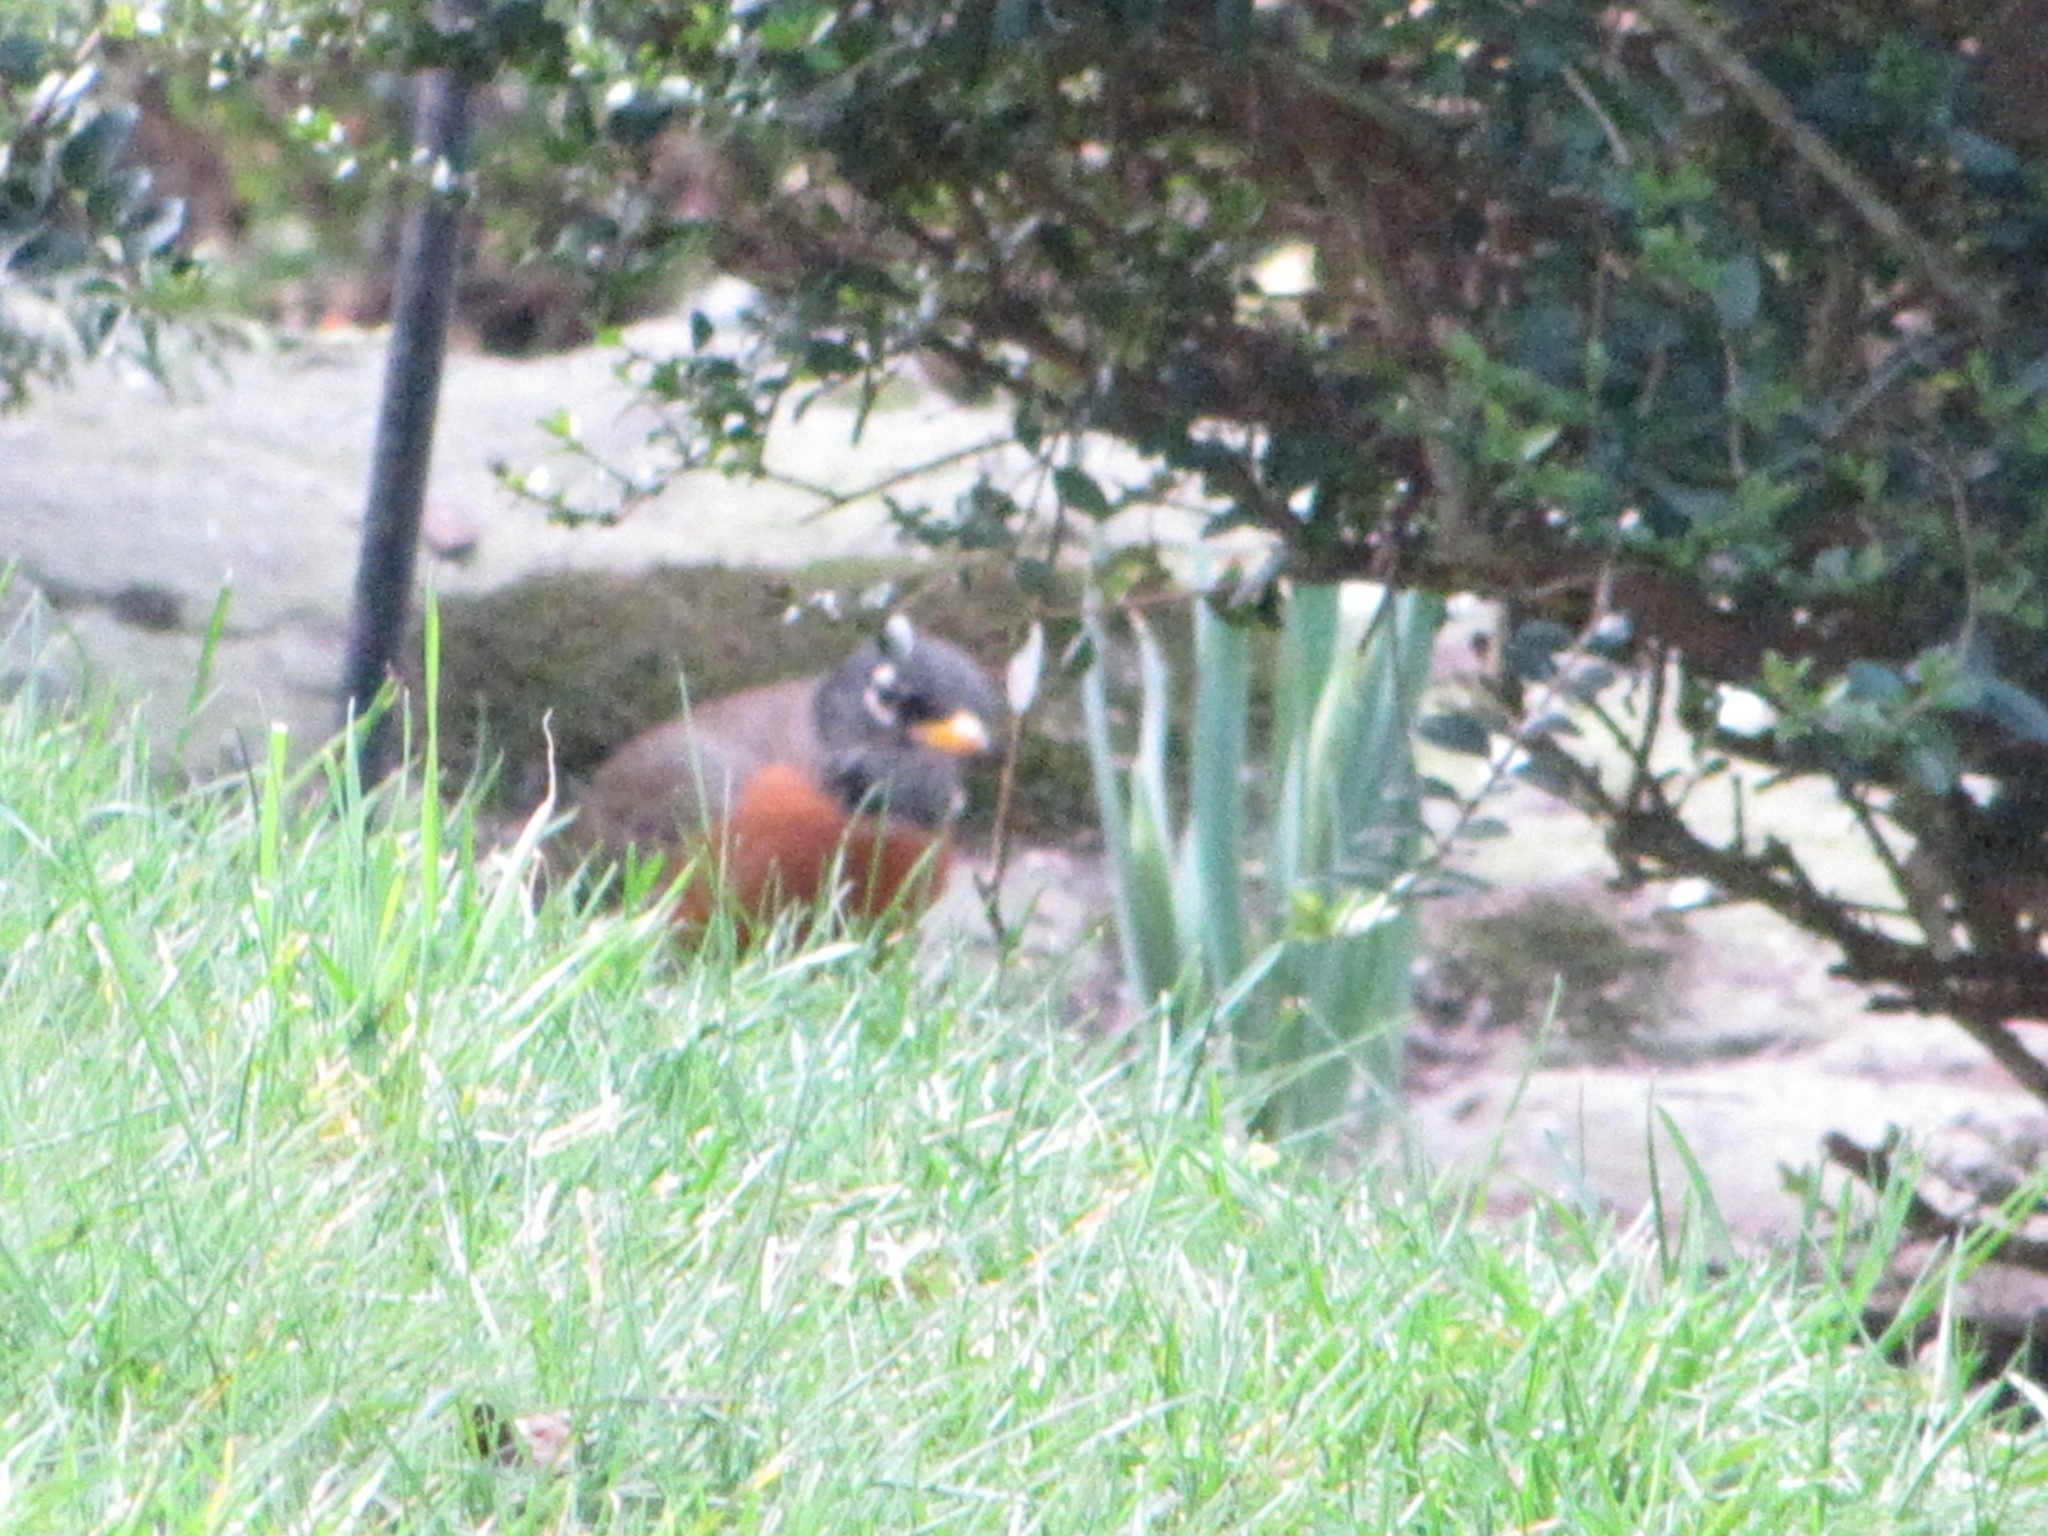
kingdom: Animalia
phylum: Chordata
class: Aves
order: Passeriformes
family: Turdidae
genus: Turdus
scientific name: Turdus migratorius
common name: American robin
